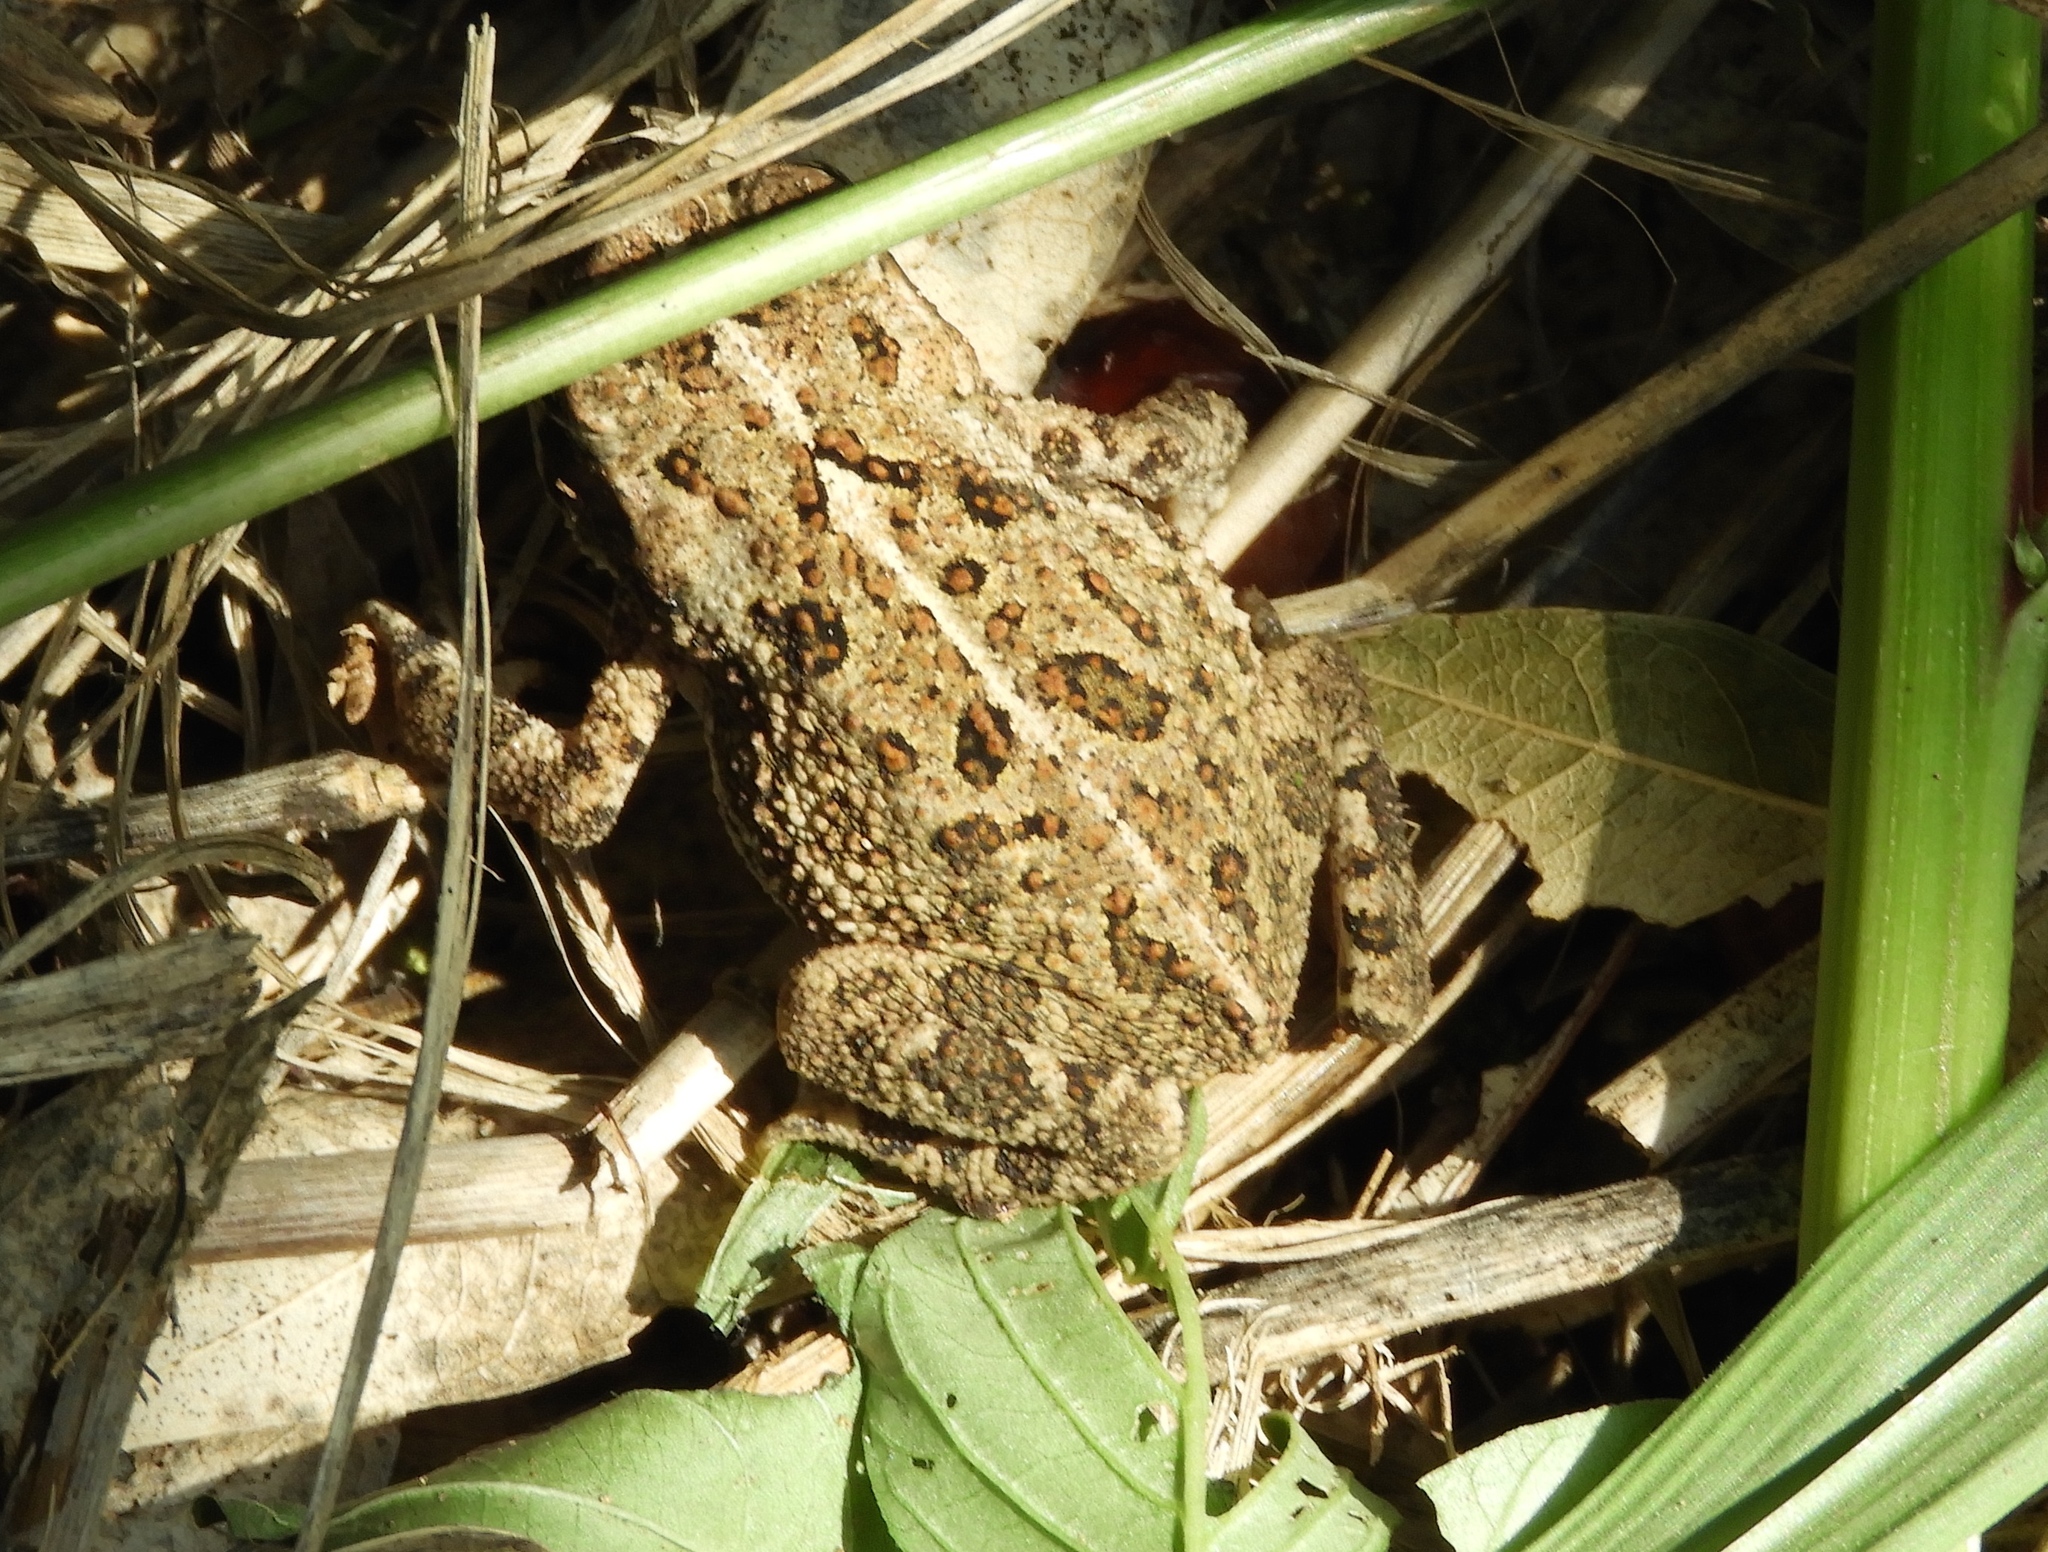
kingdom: Animalia
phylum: Chordata
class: Amphibia
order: Anura
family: Bufonidae
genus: Incilius
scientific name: Incilius mazatlanensis
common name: Sinaloa toad
